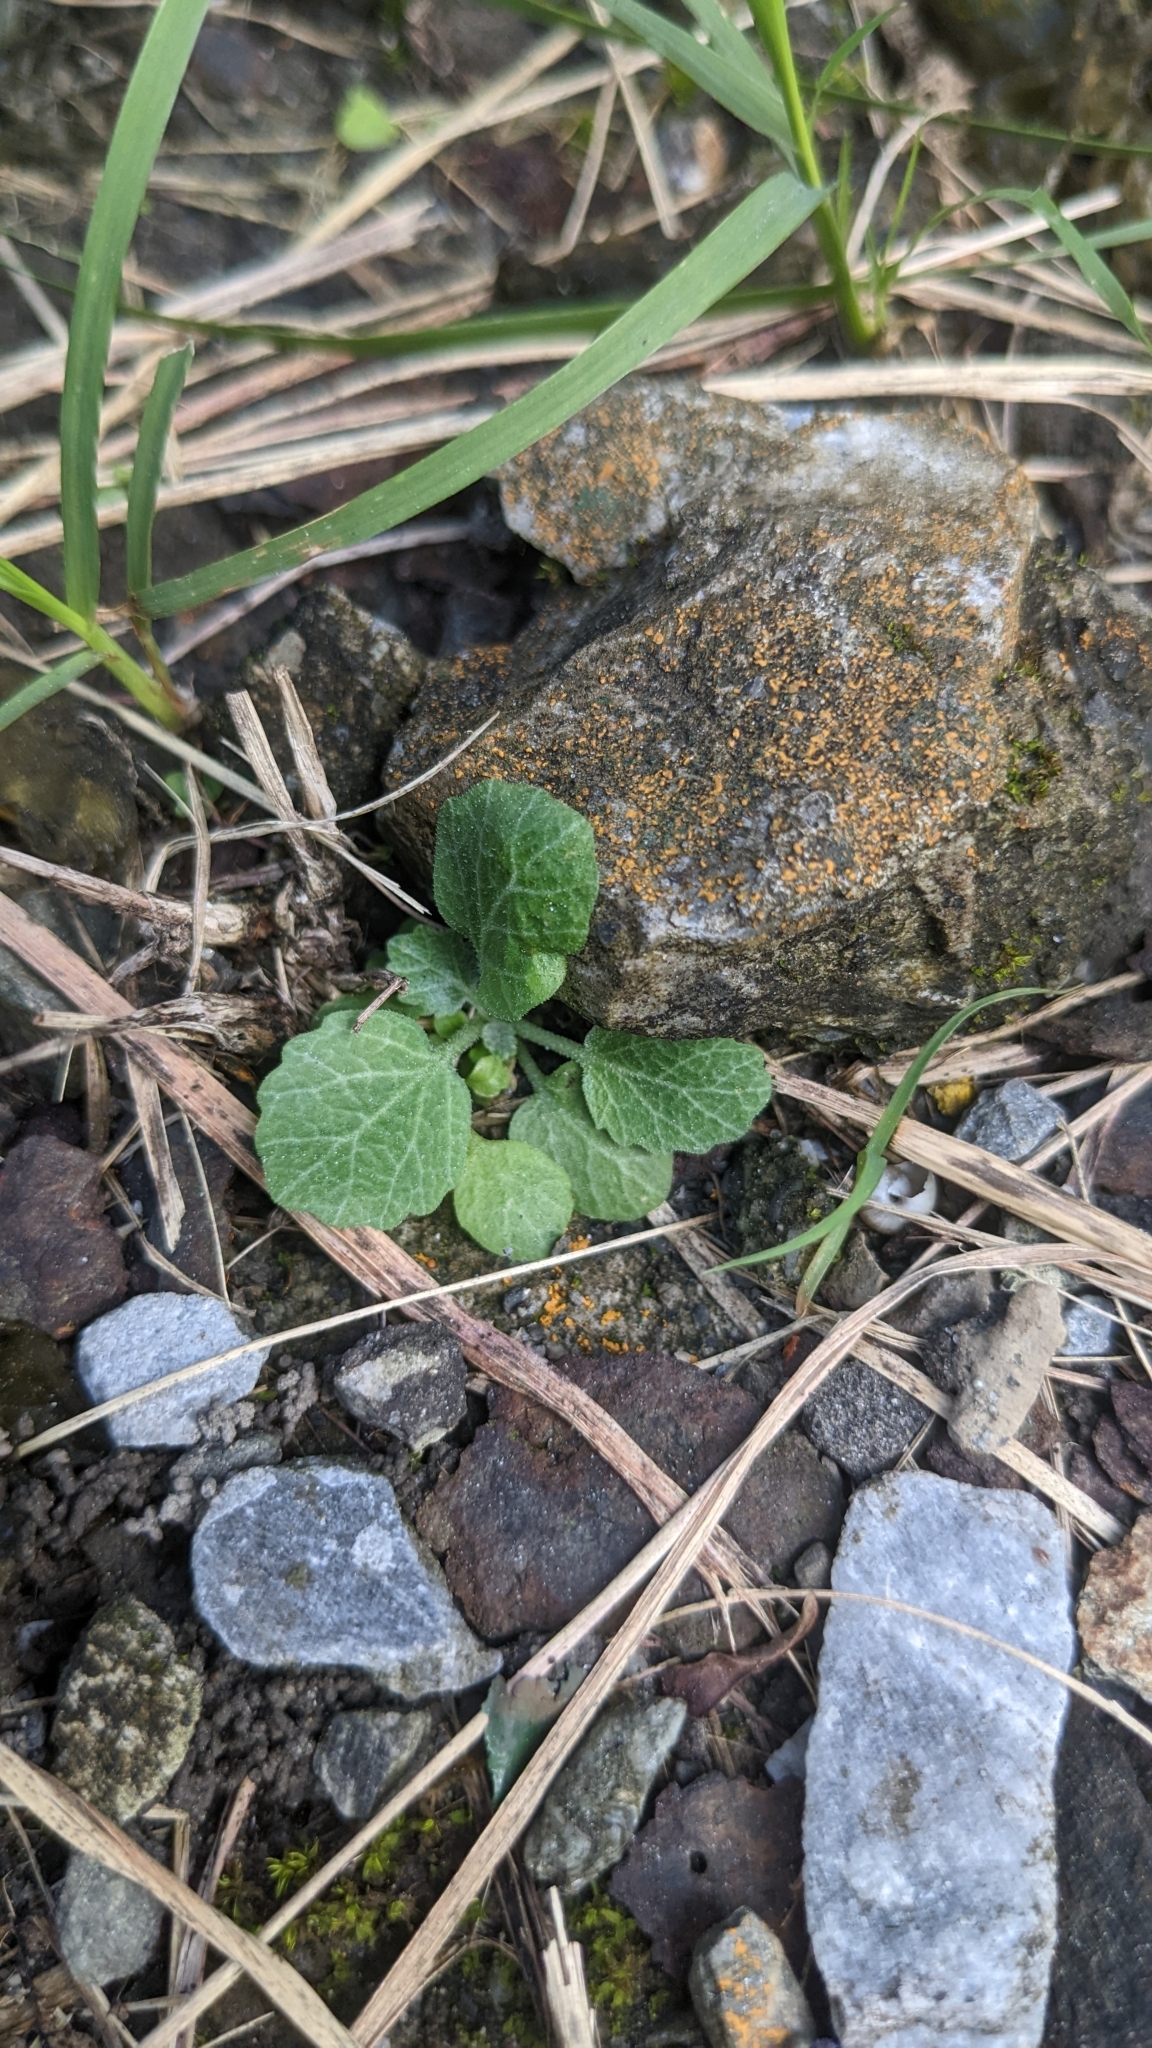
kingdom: Plantae
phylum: Tracheophyta
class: Magnoliopsida
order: Ericales
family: Primulaceae
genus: Androsace
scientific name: Androsace umbellata
